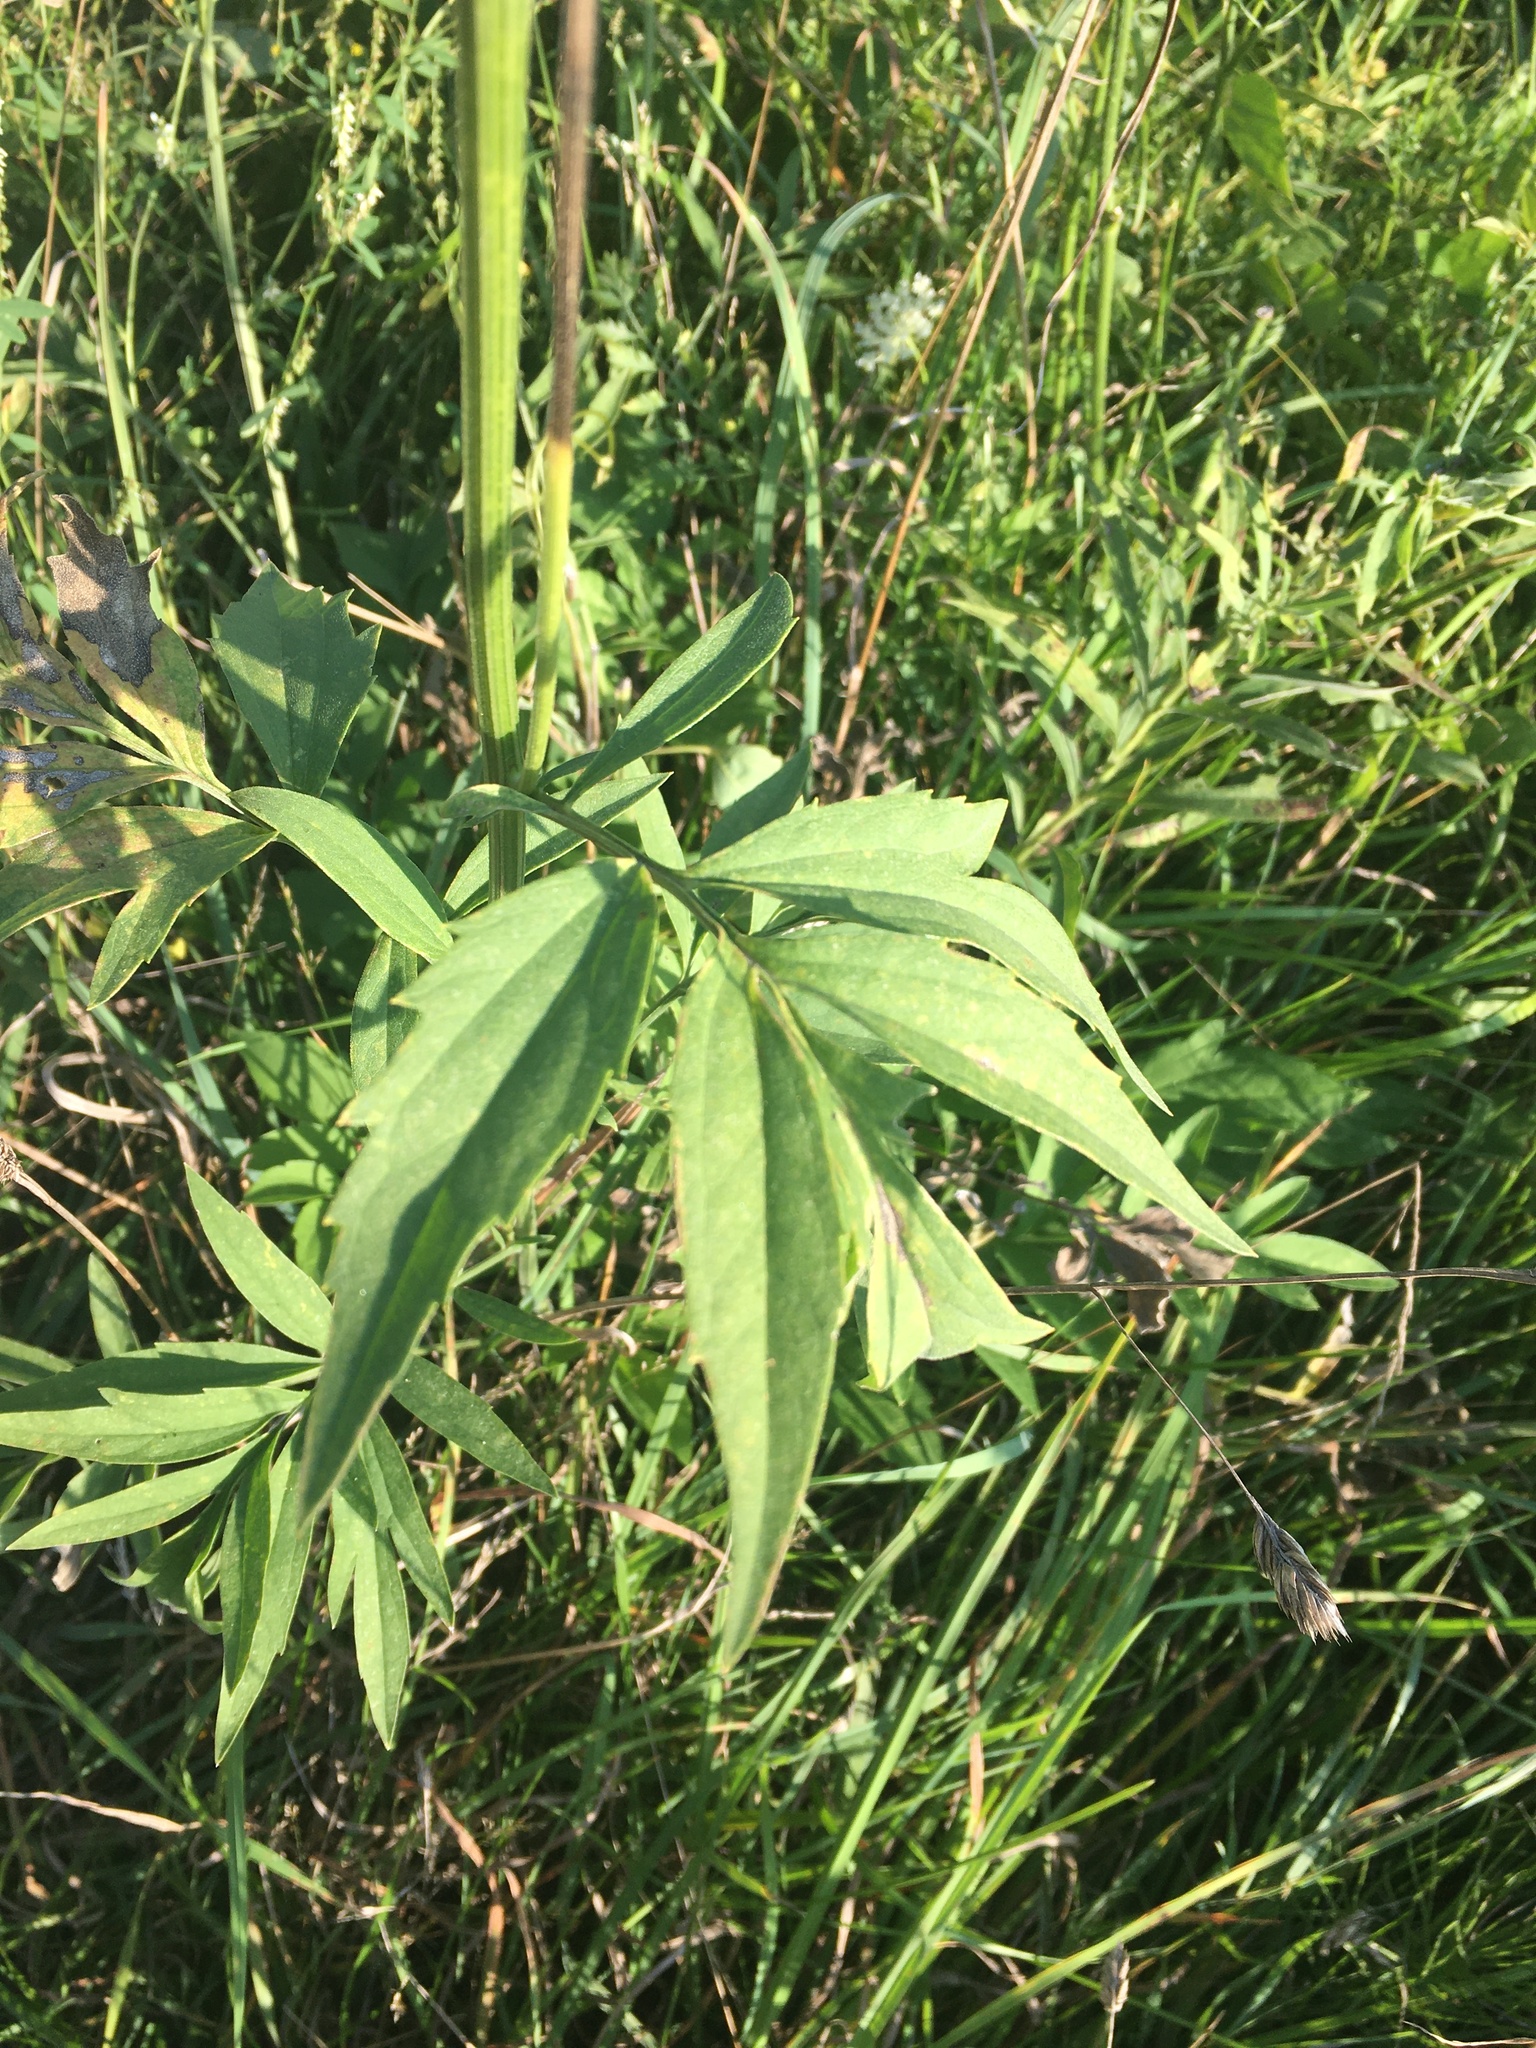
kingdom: Plantae
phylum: Tracheophyta
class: Magnoliopsida
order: Asterales
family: Asteraceae
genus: Ratibida
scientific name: Ratibida pinnata
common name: Drooping prairie-coneflower
